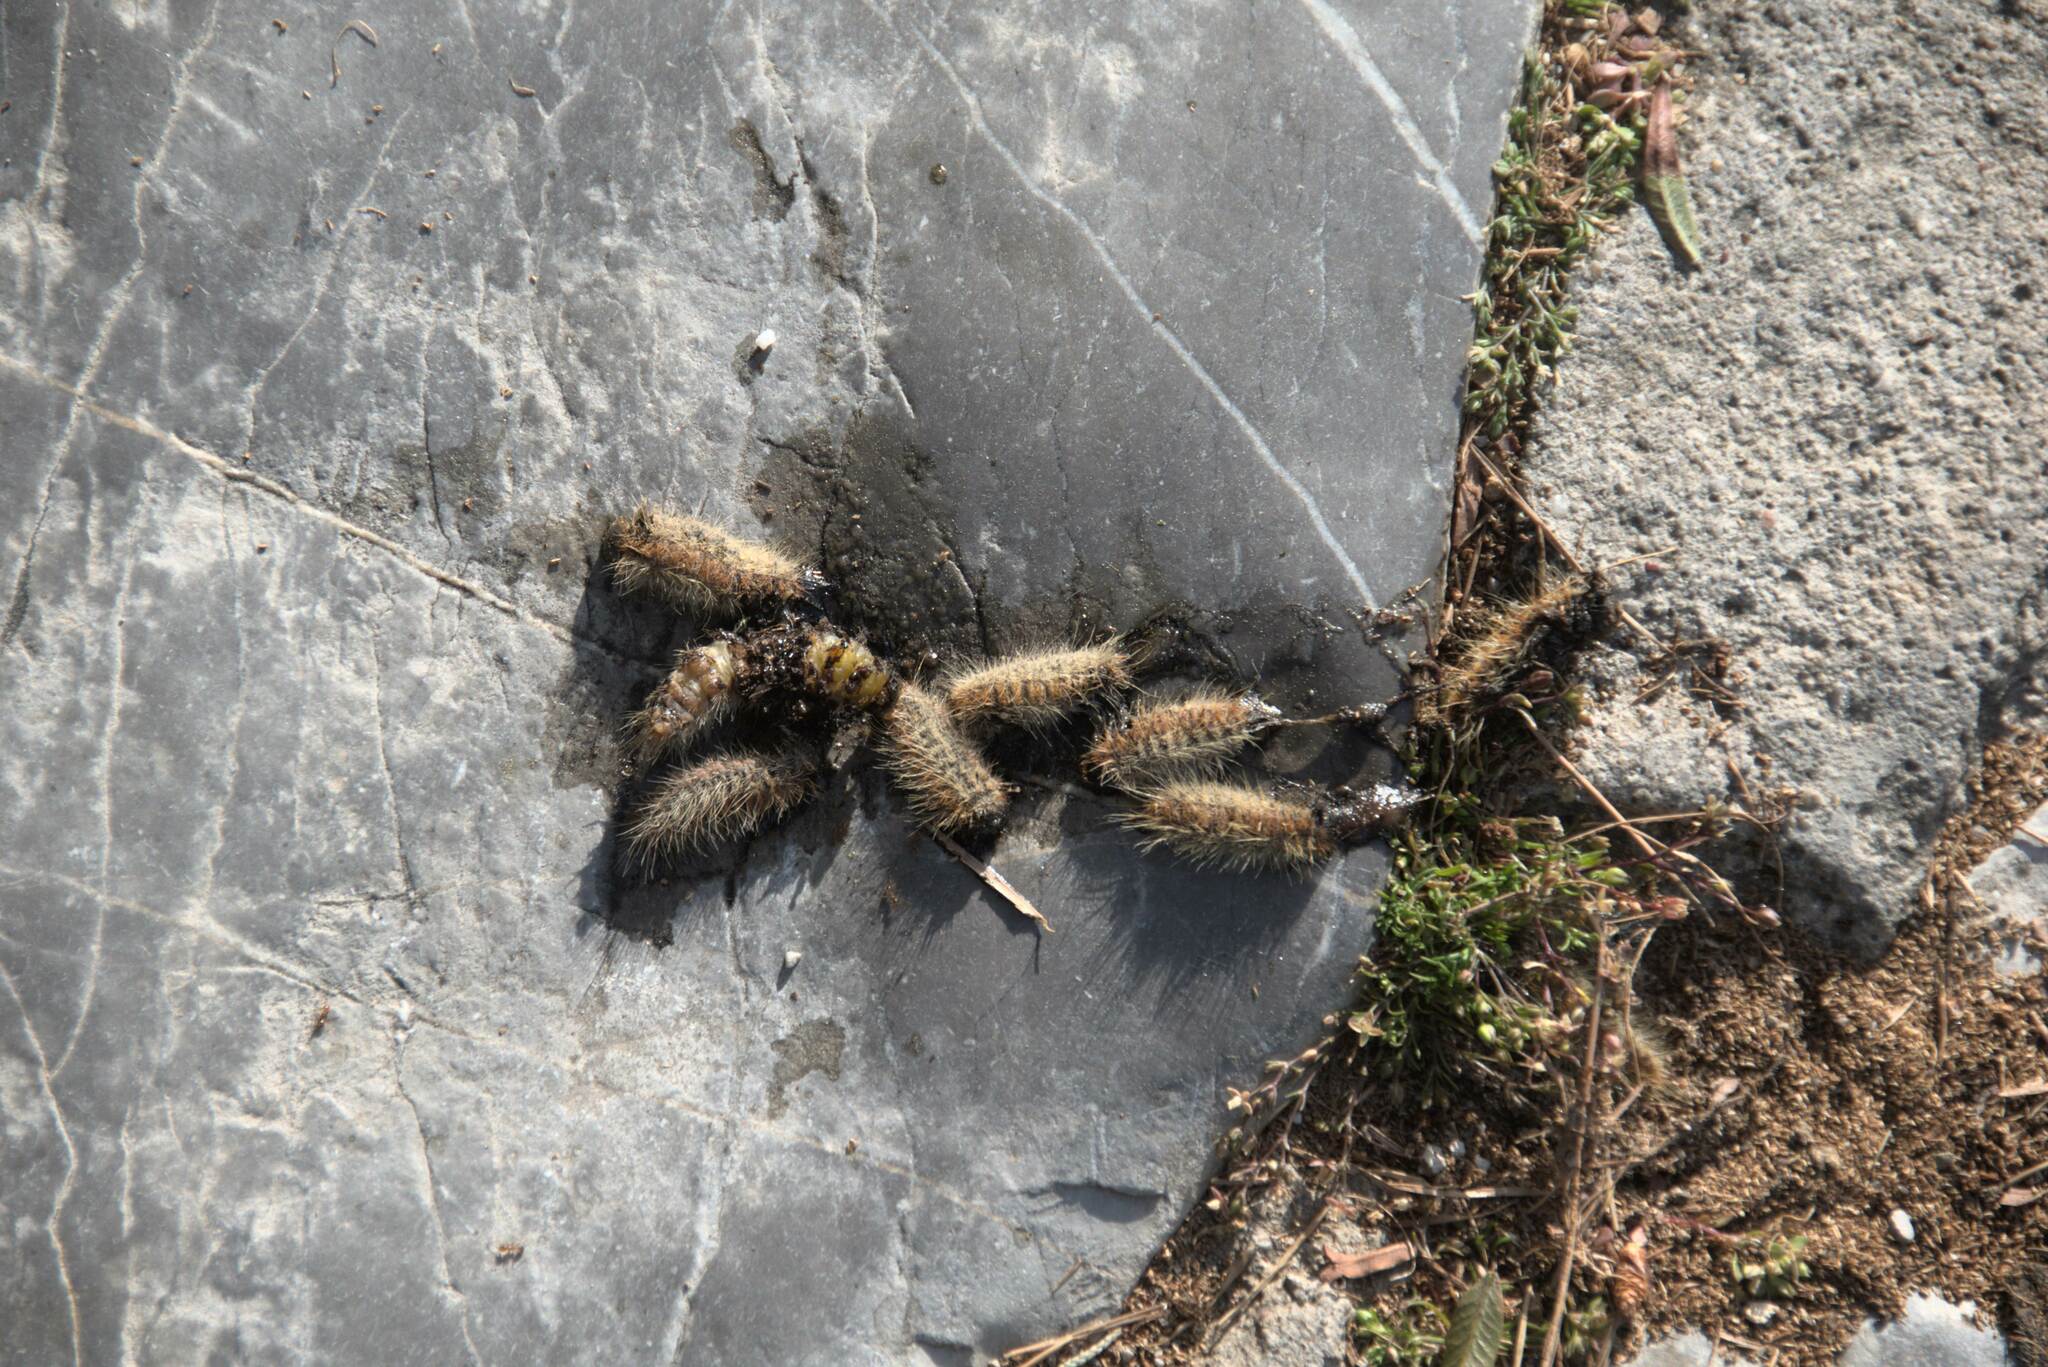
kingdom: Animalia
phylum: Arthropoda
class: Insecta
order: Lepidoptera
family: Notodontidae
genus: Thaumetopoea
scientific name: Thaumetopoea
